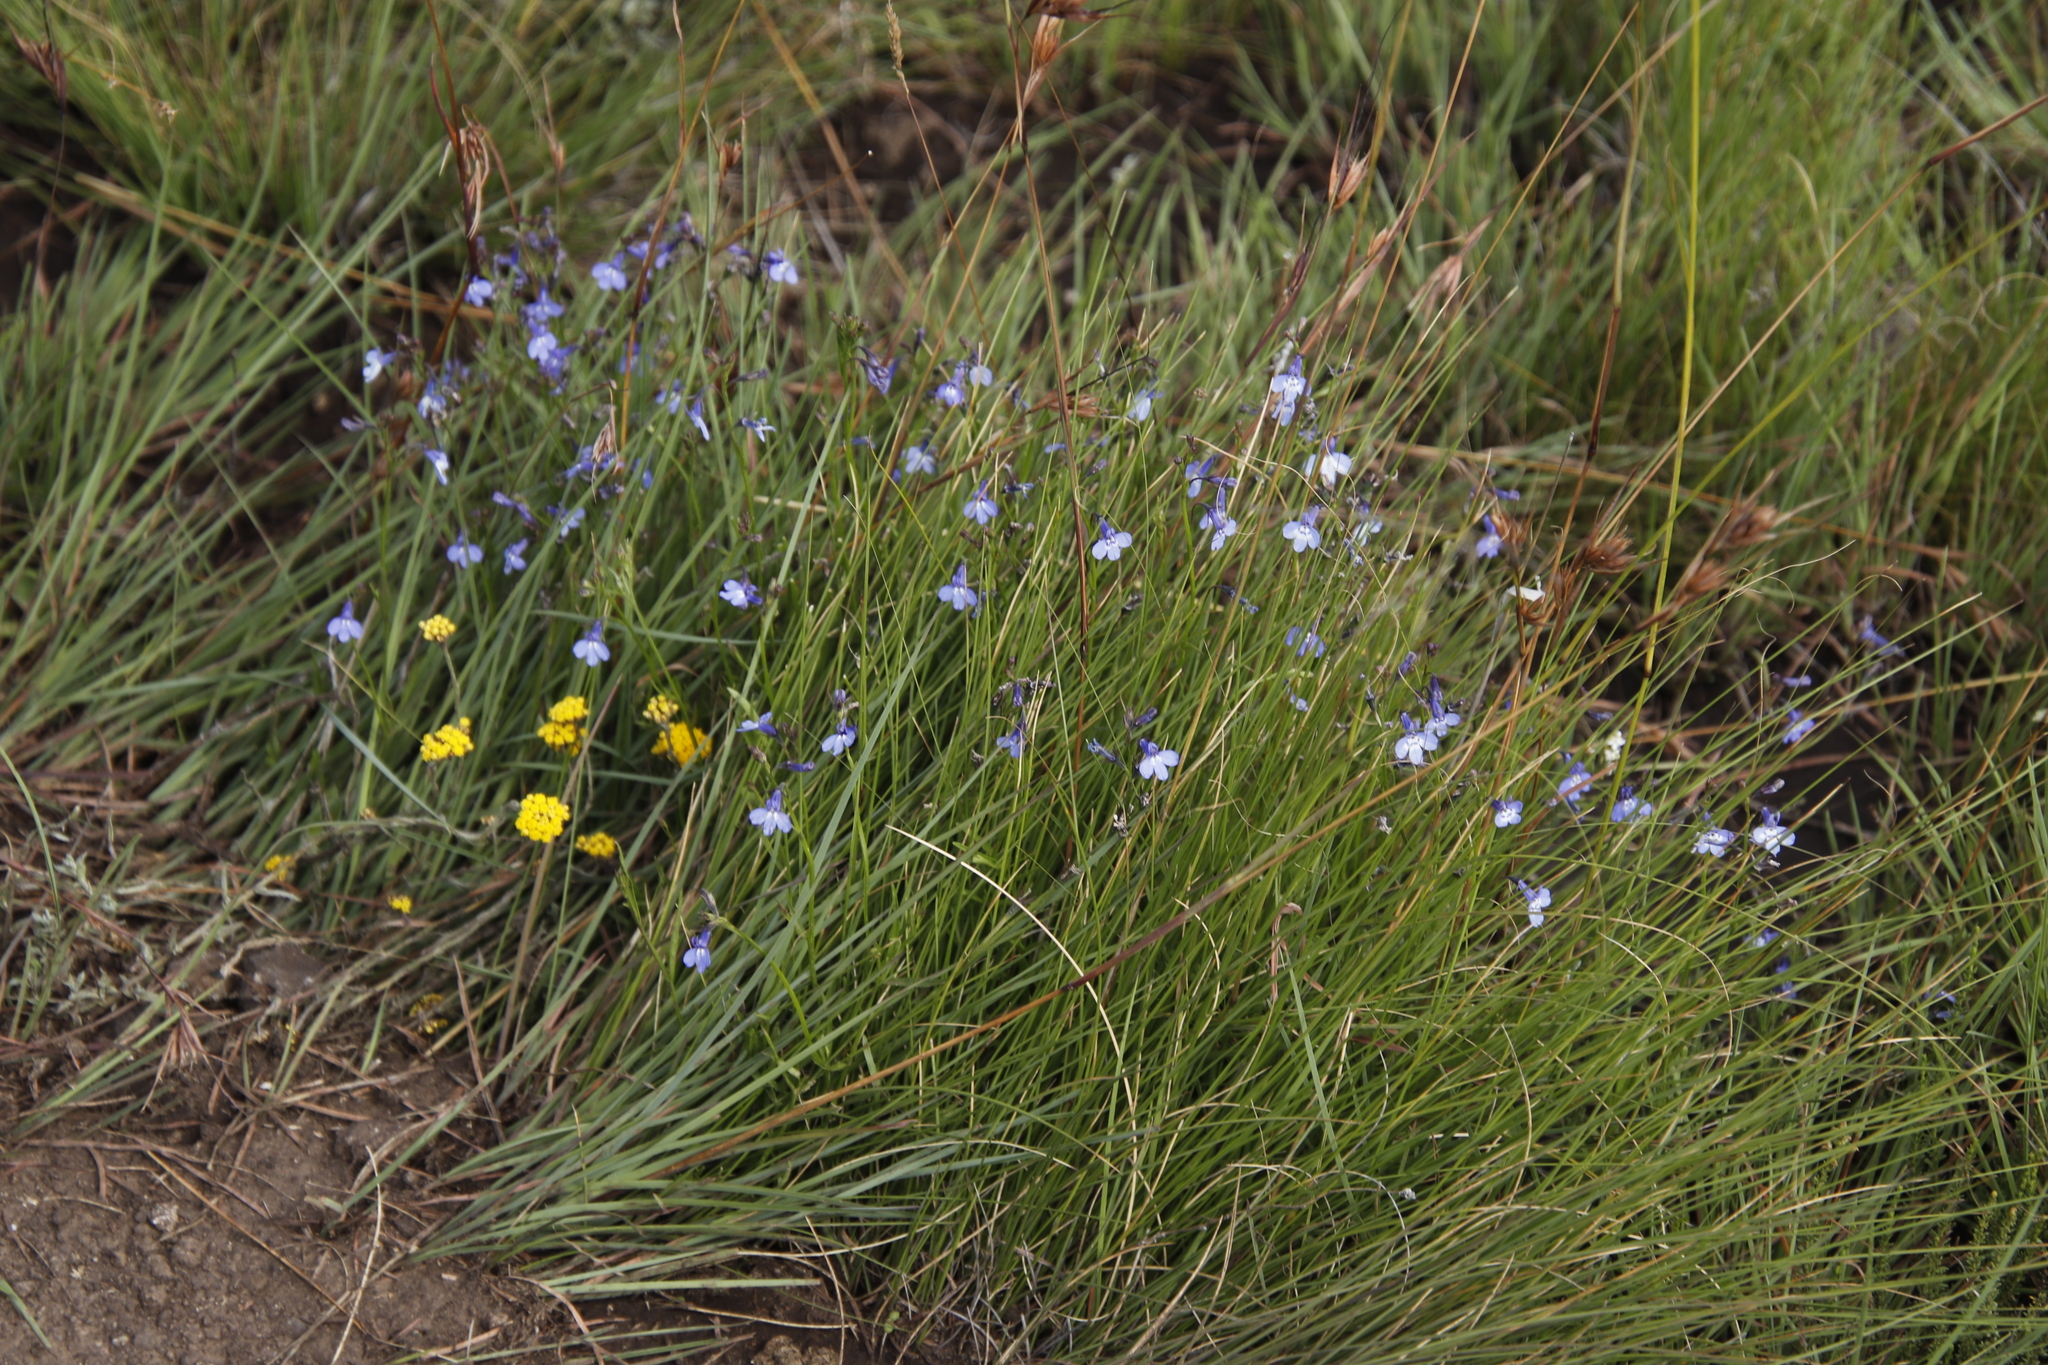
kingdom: Plantae
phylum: Tracheophyta
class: Magnoliopsida
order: Asterales
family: Campanulaceae
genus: Lobelia
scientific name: Lobelia flaccida
